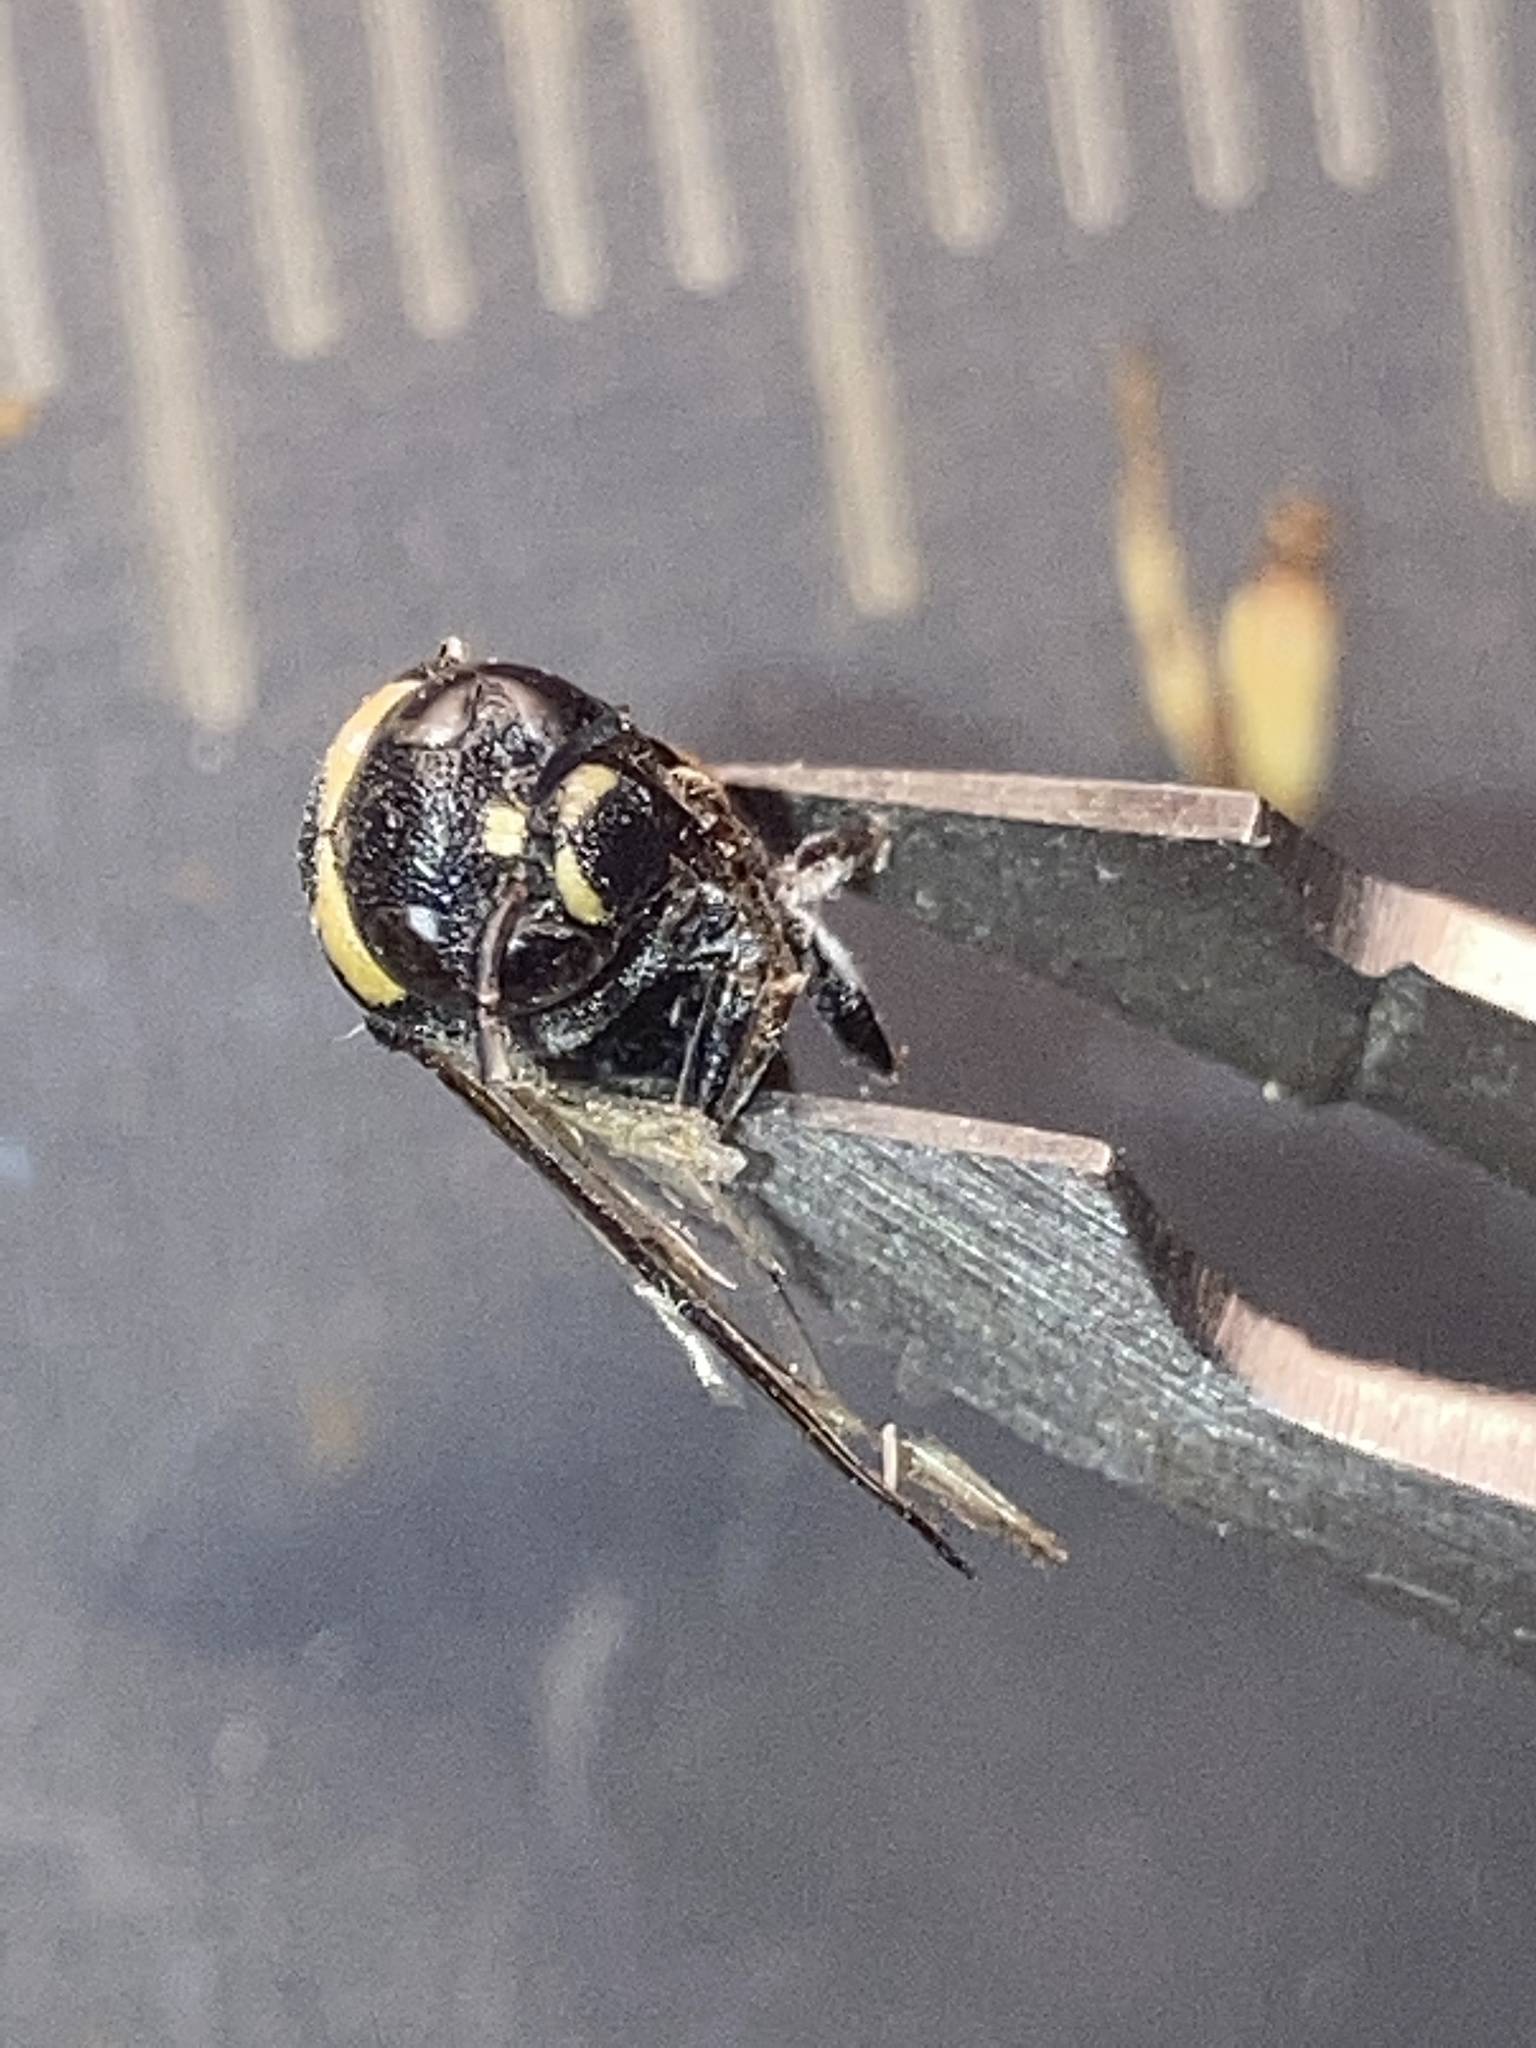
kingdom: Animalia
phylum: Arthropoda
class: Insecta
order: Hymenoptera
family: Eumenidae
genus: Euodynerus
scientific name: Euodynerus megaera
